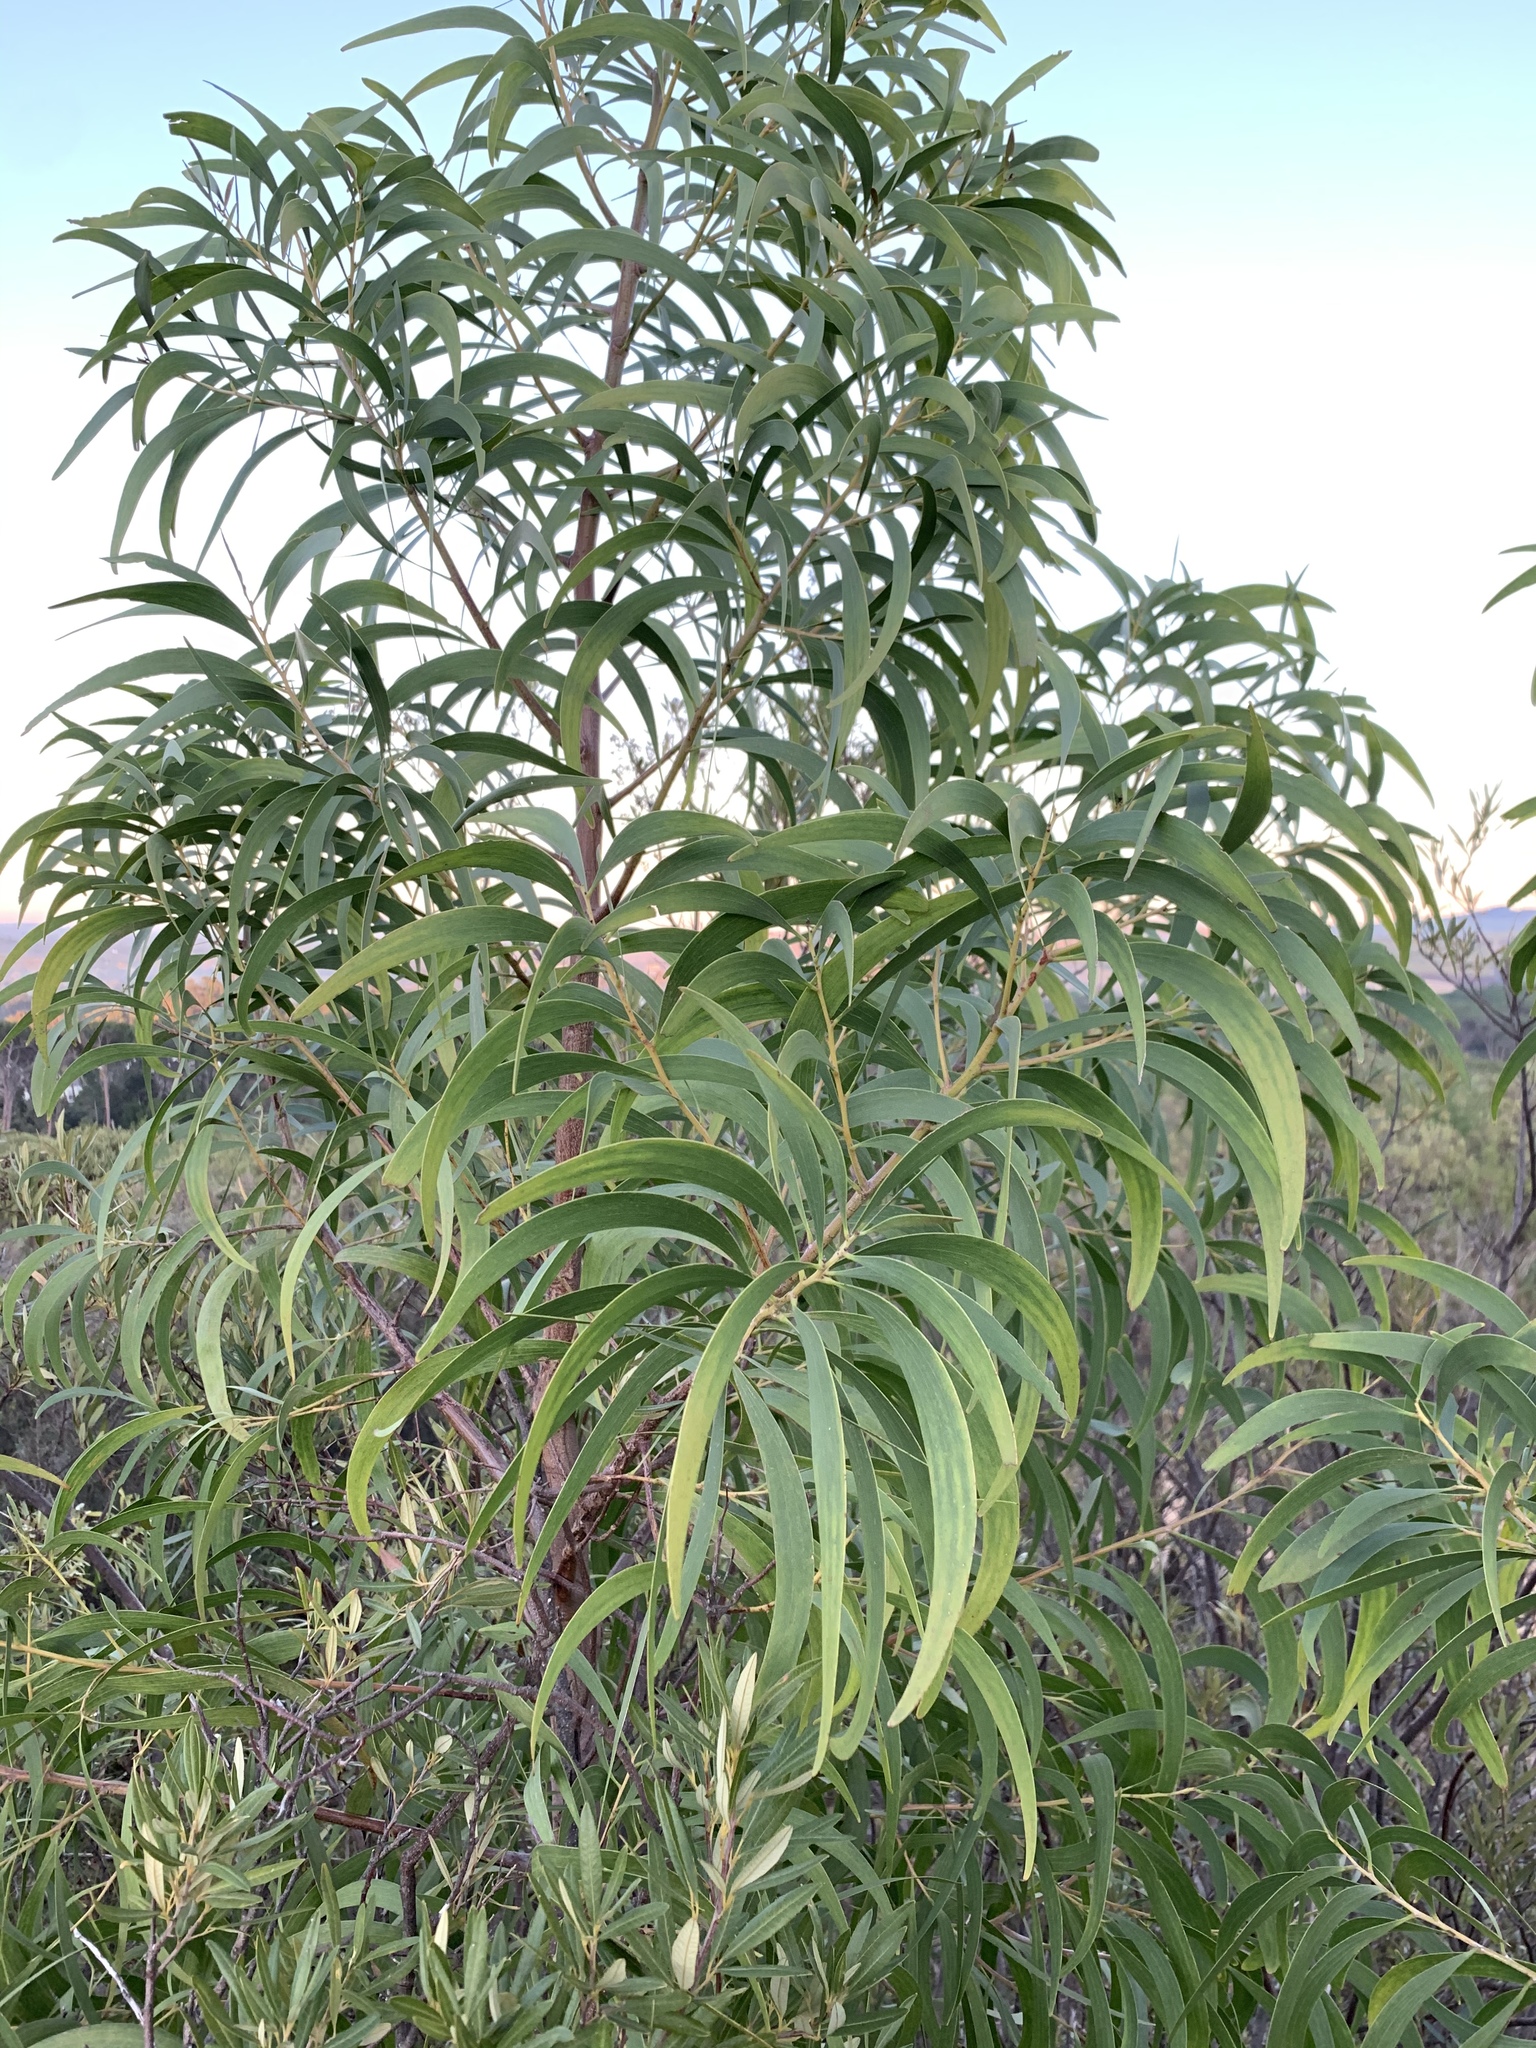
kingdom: Plantae
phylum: Tracheophyta
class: Magnoliopsida
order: Fabales
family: Fabaceae
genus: Acacia
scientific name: Acacia implexa
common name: Black wattle
